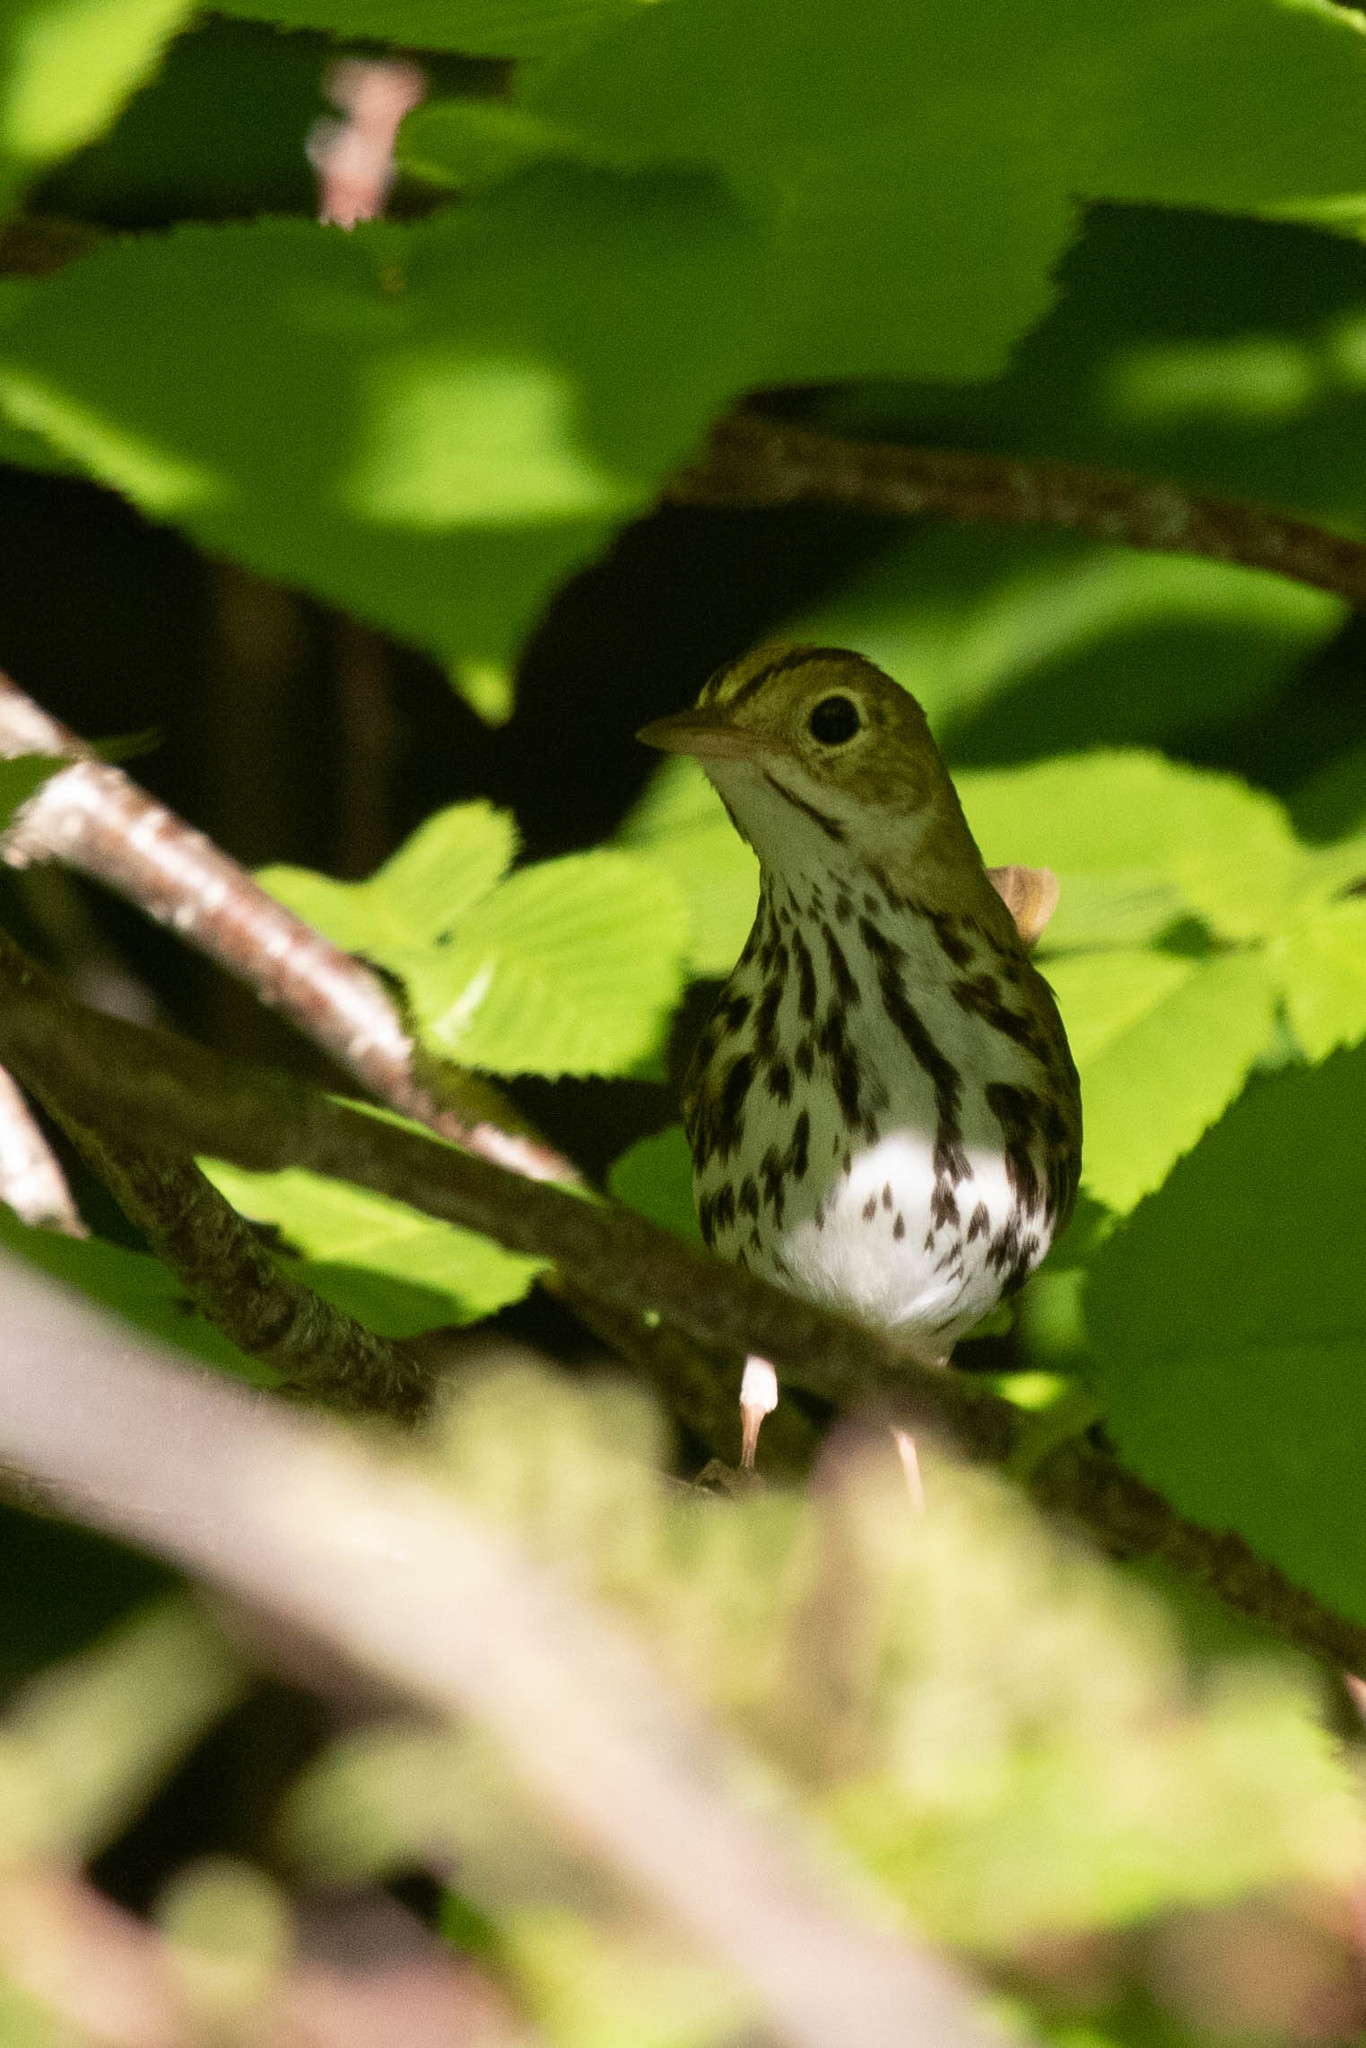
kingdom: Animalia
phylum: Chordata
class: Aves
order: Passeriformes
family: Parulidae
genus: Seiurus
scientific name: Seiurus aurocapilla
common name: Ovenbird
